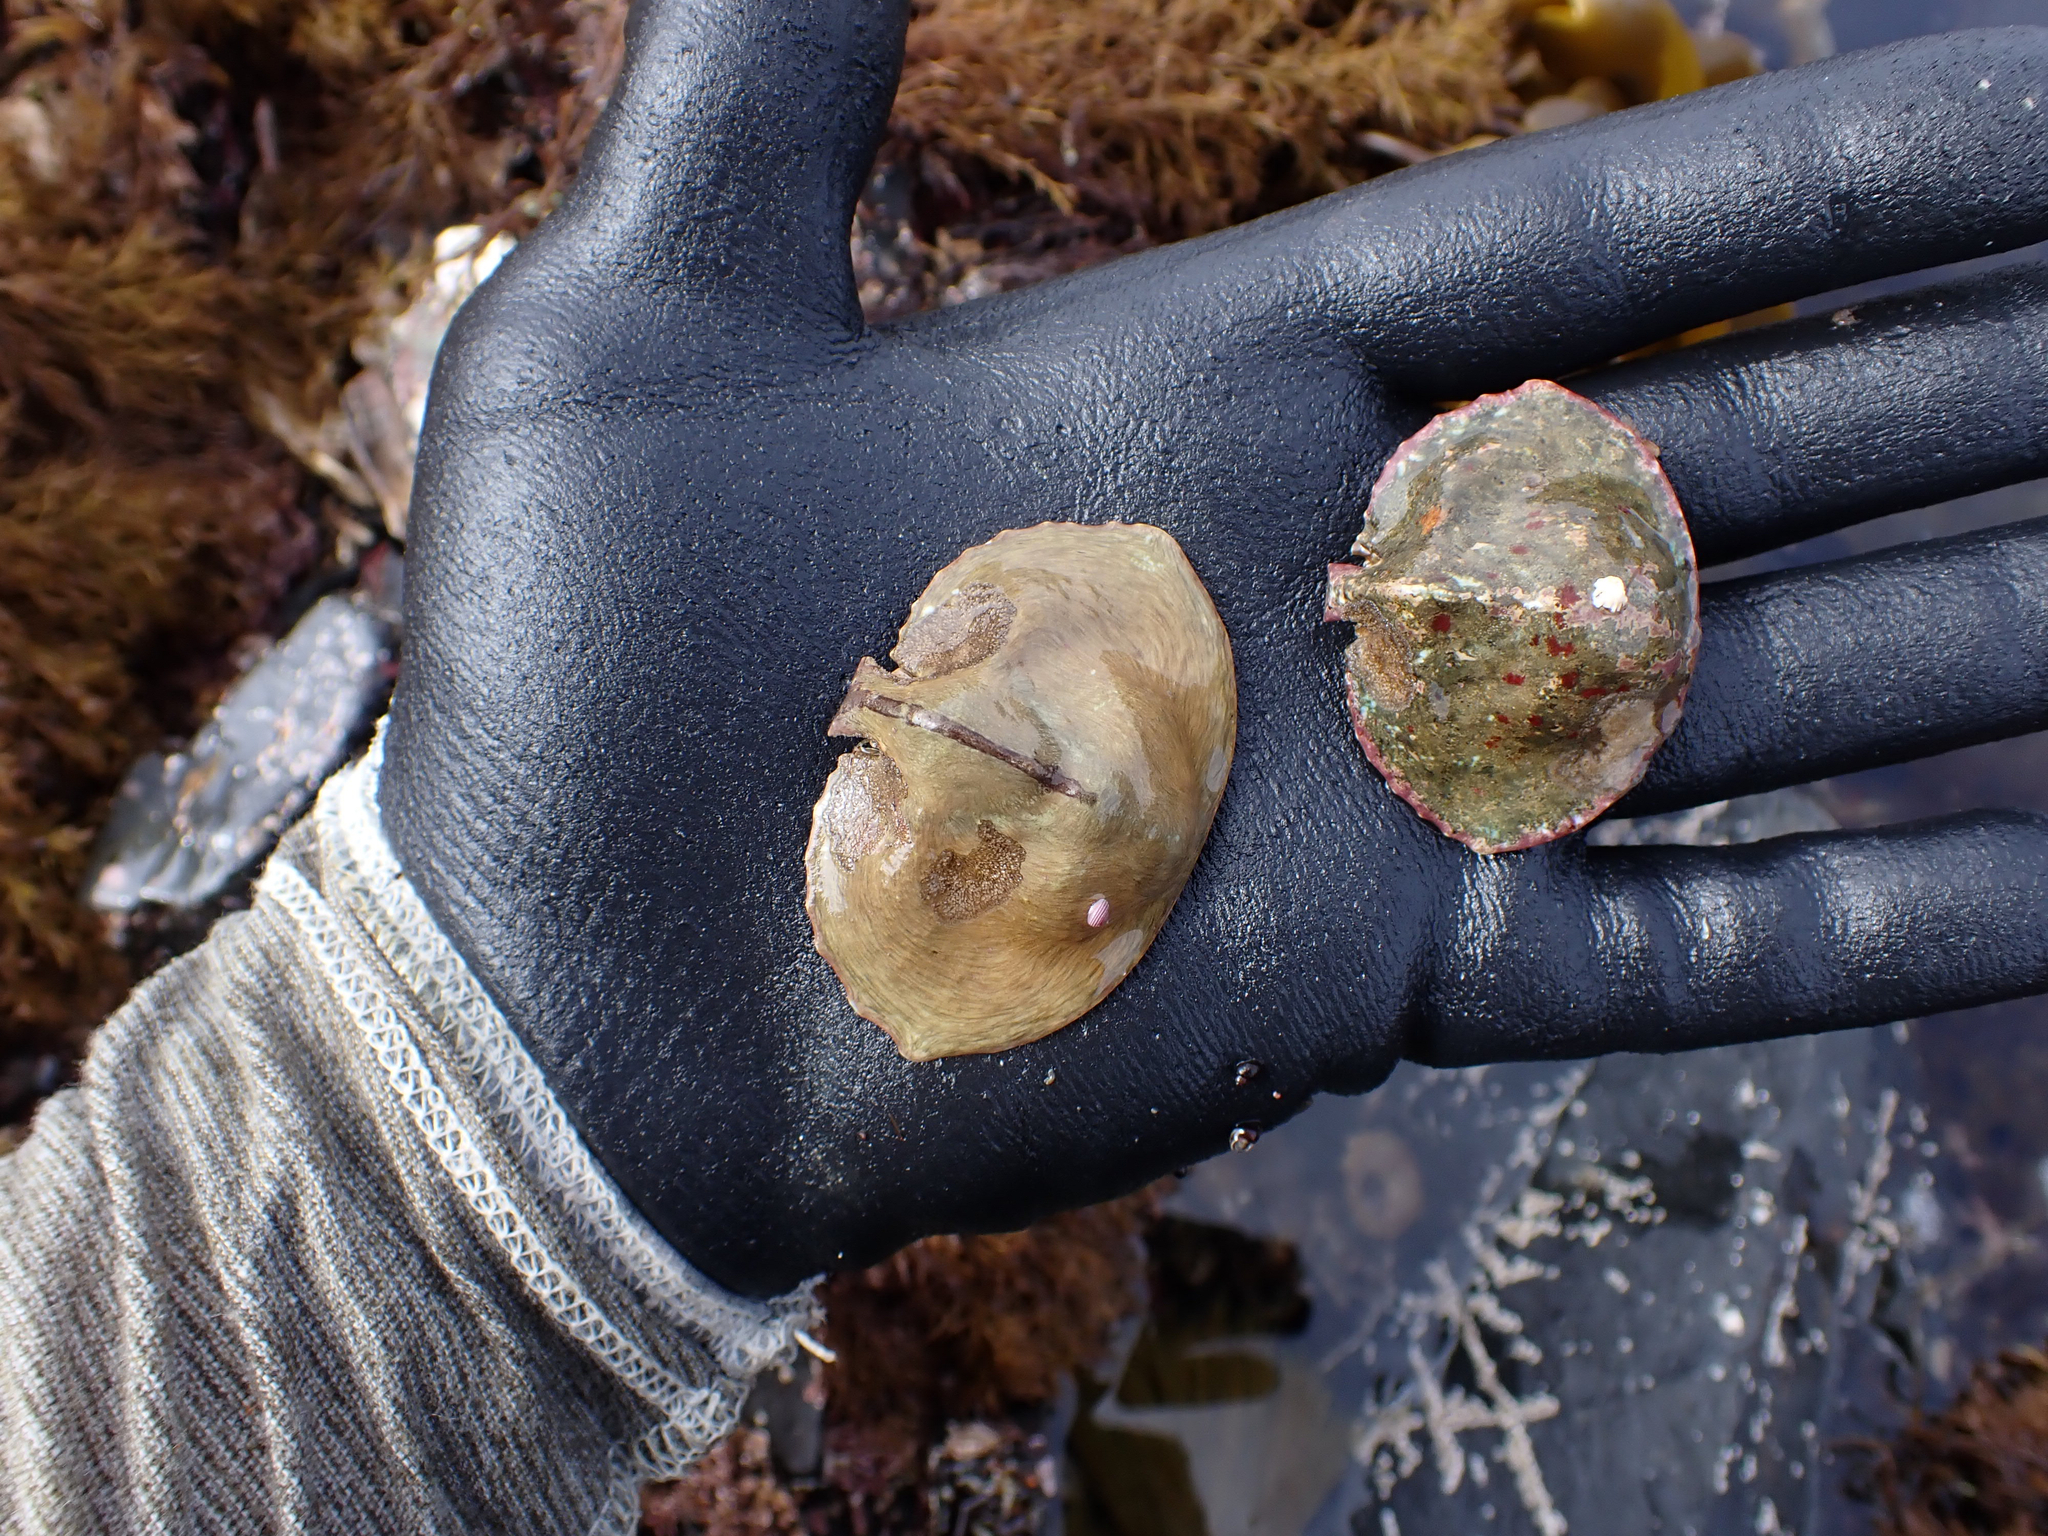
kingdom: Animalia
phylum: Arthropoda
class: Malacostraca
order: Decapoda
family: Lithodidae
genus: Cryptolithodes
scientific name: Cryptolithodes sitchensis
